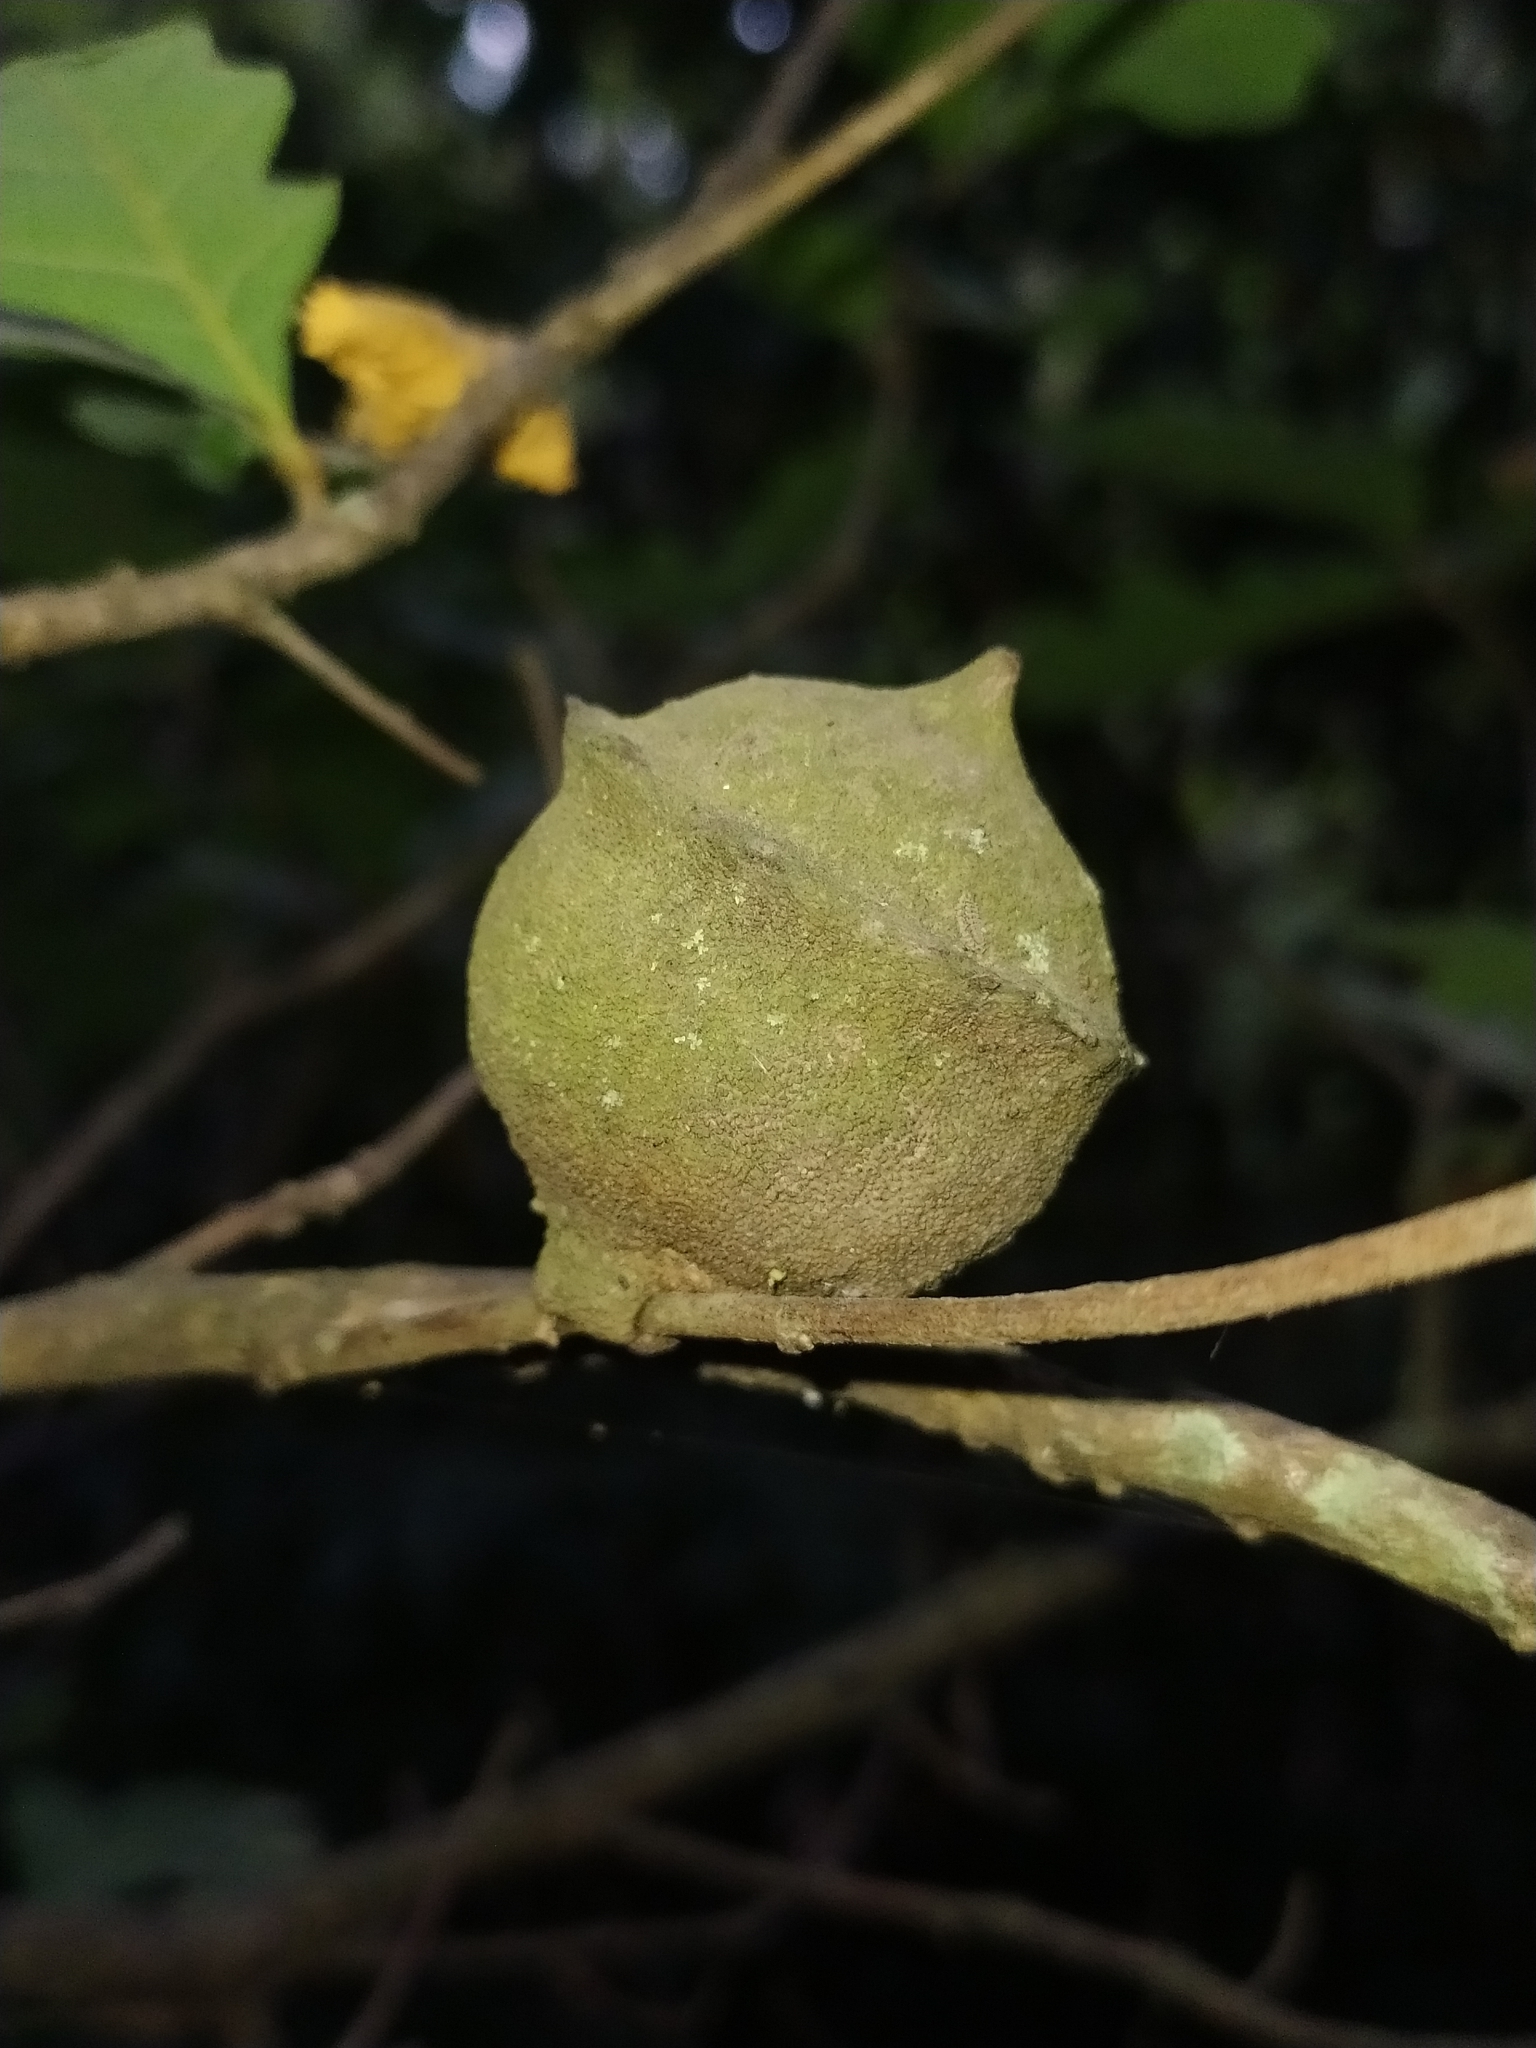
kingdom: Animalia
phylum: Arthropoda
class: Insecta
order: Hymenoptera
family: Cynipidae
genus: Andricus
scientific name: Andricus quercustozae
